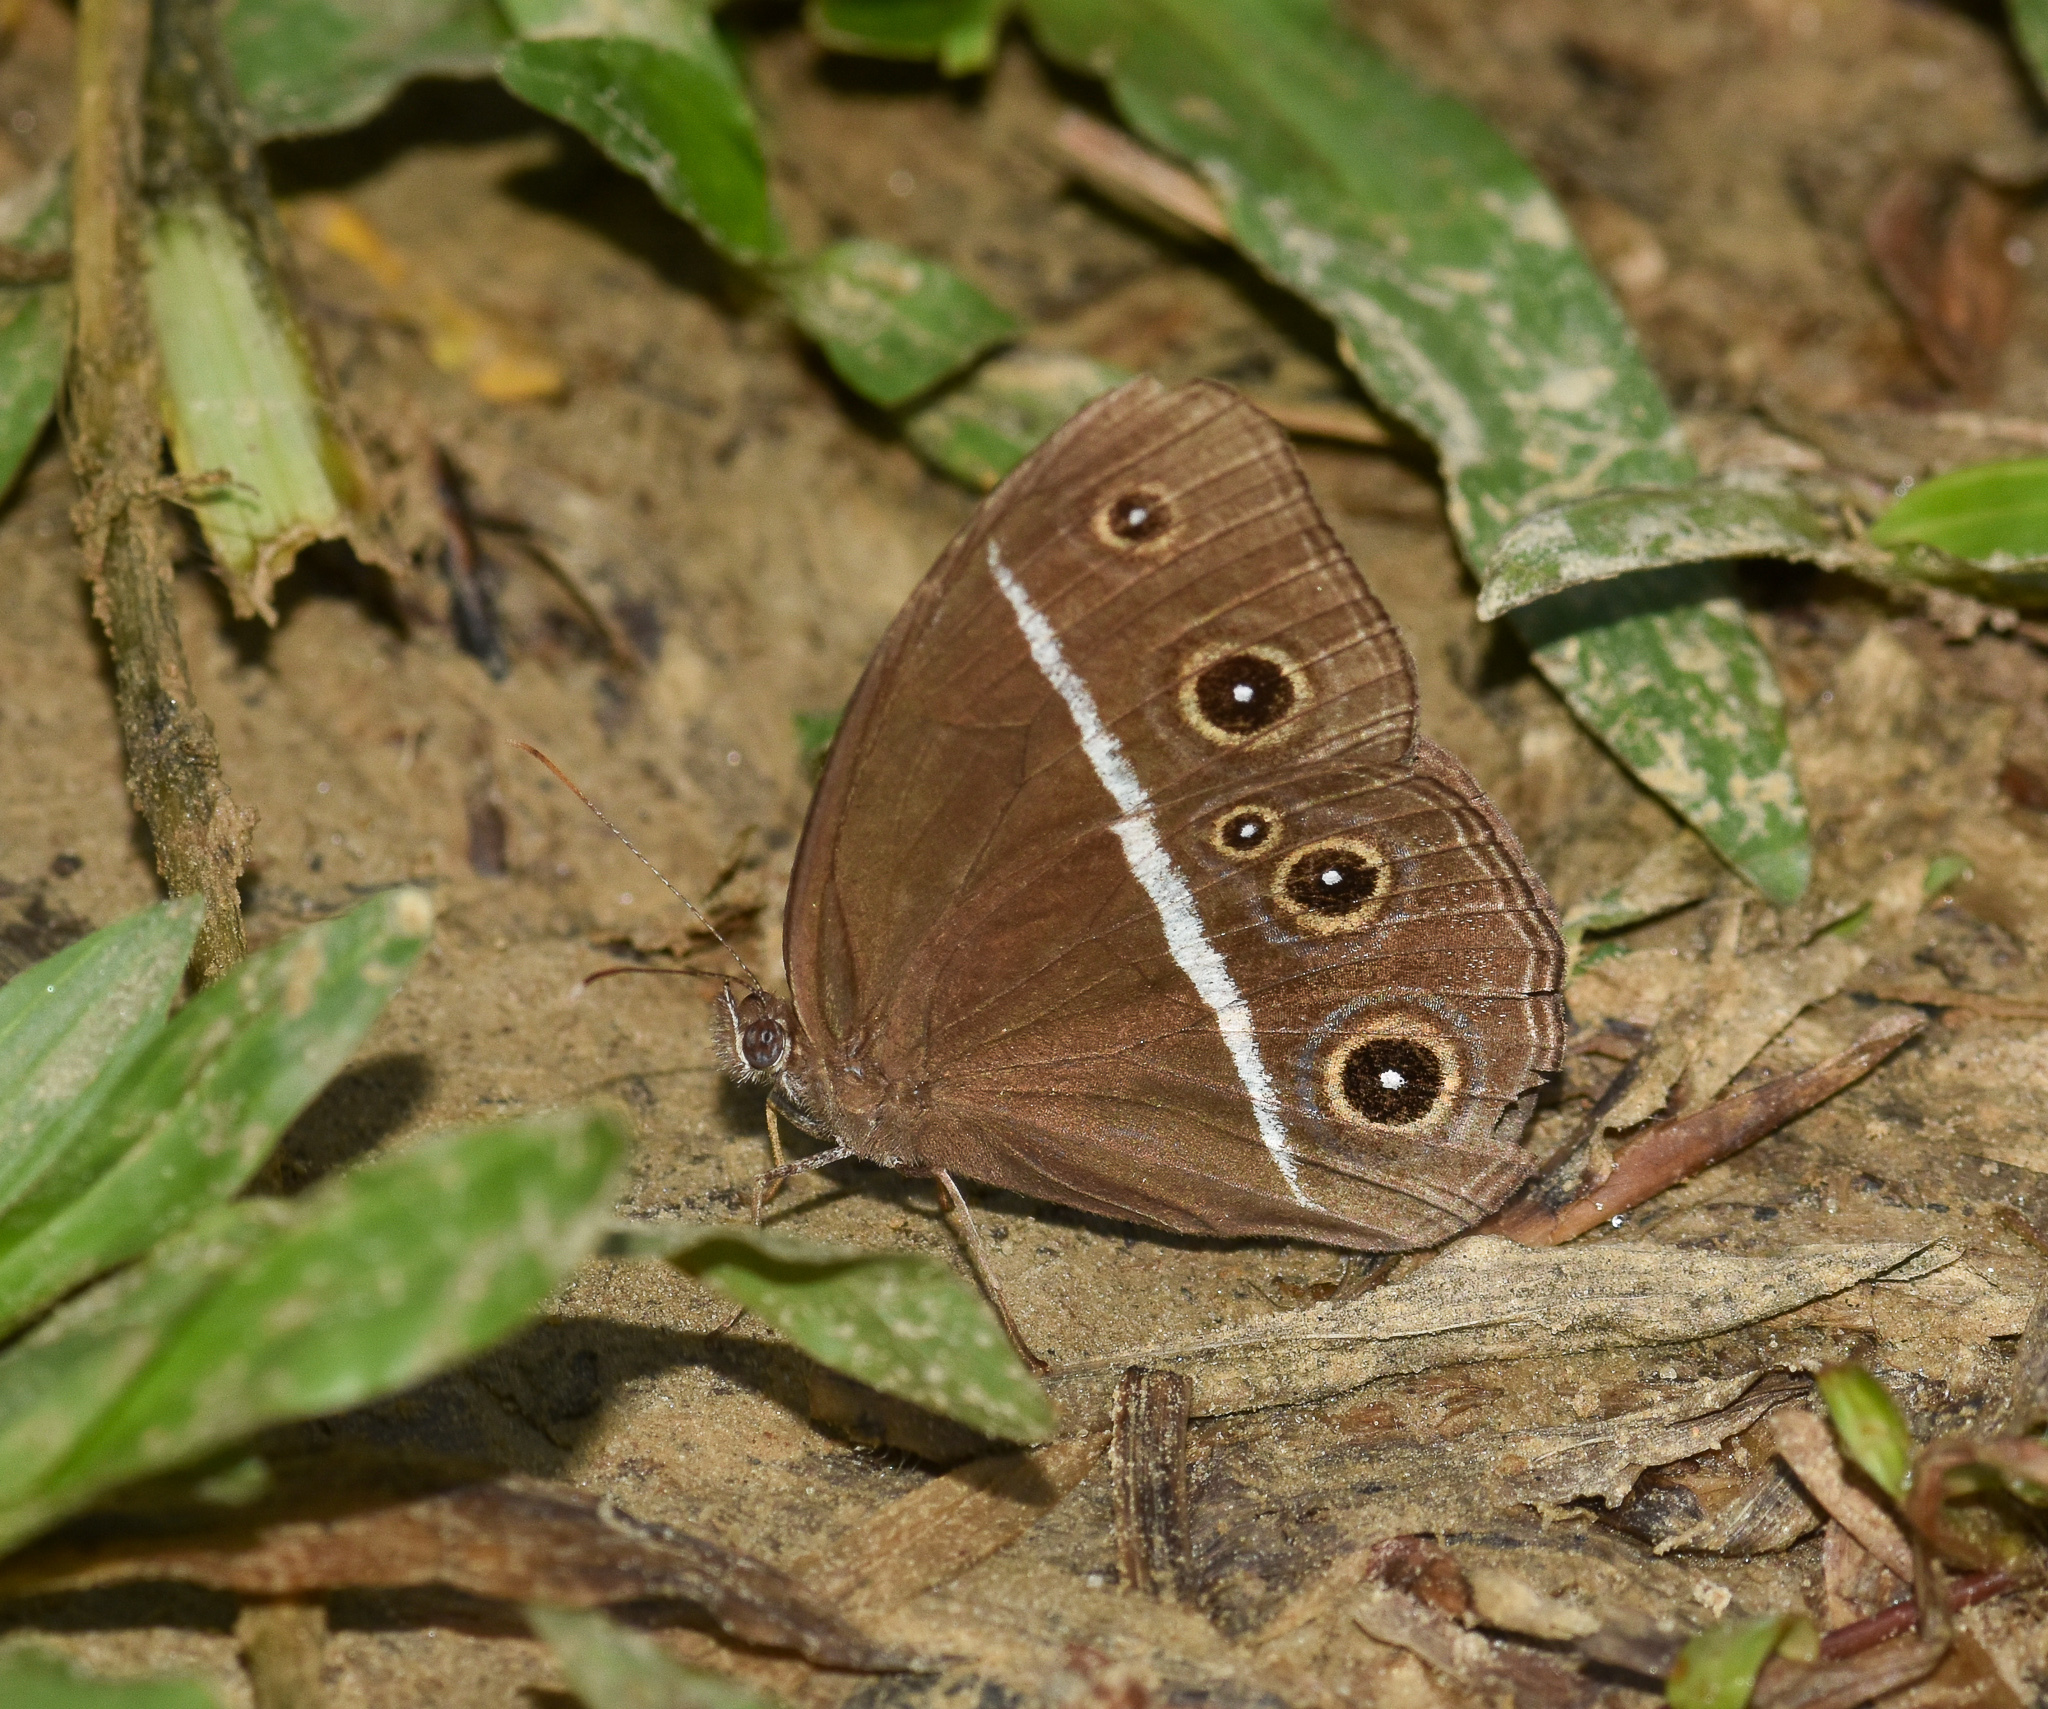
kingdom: Animalia
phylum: Arthropoda
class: Insecta
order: Lepidoptera
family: Nymphalidae
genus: Orsotriaena
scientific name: Orsotriaena medus
